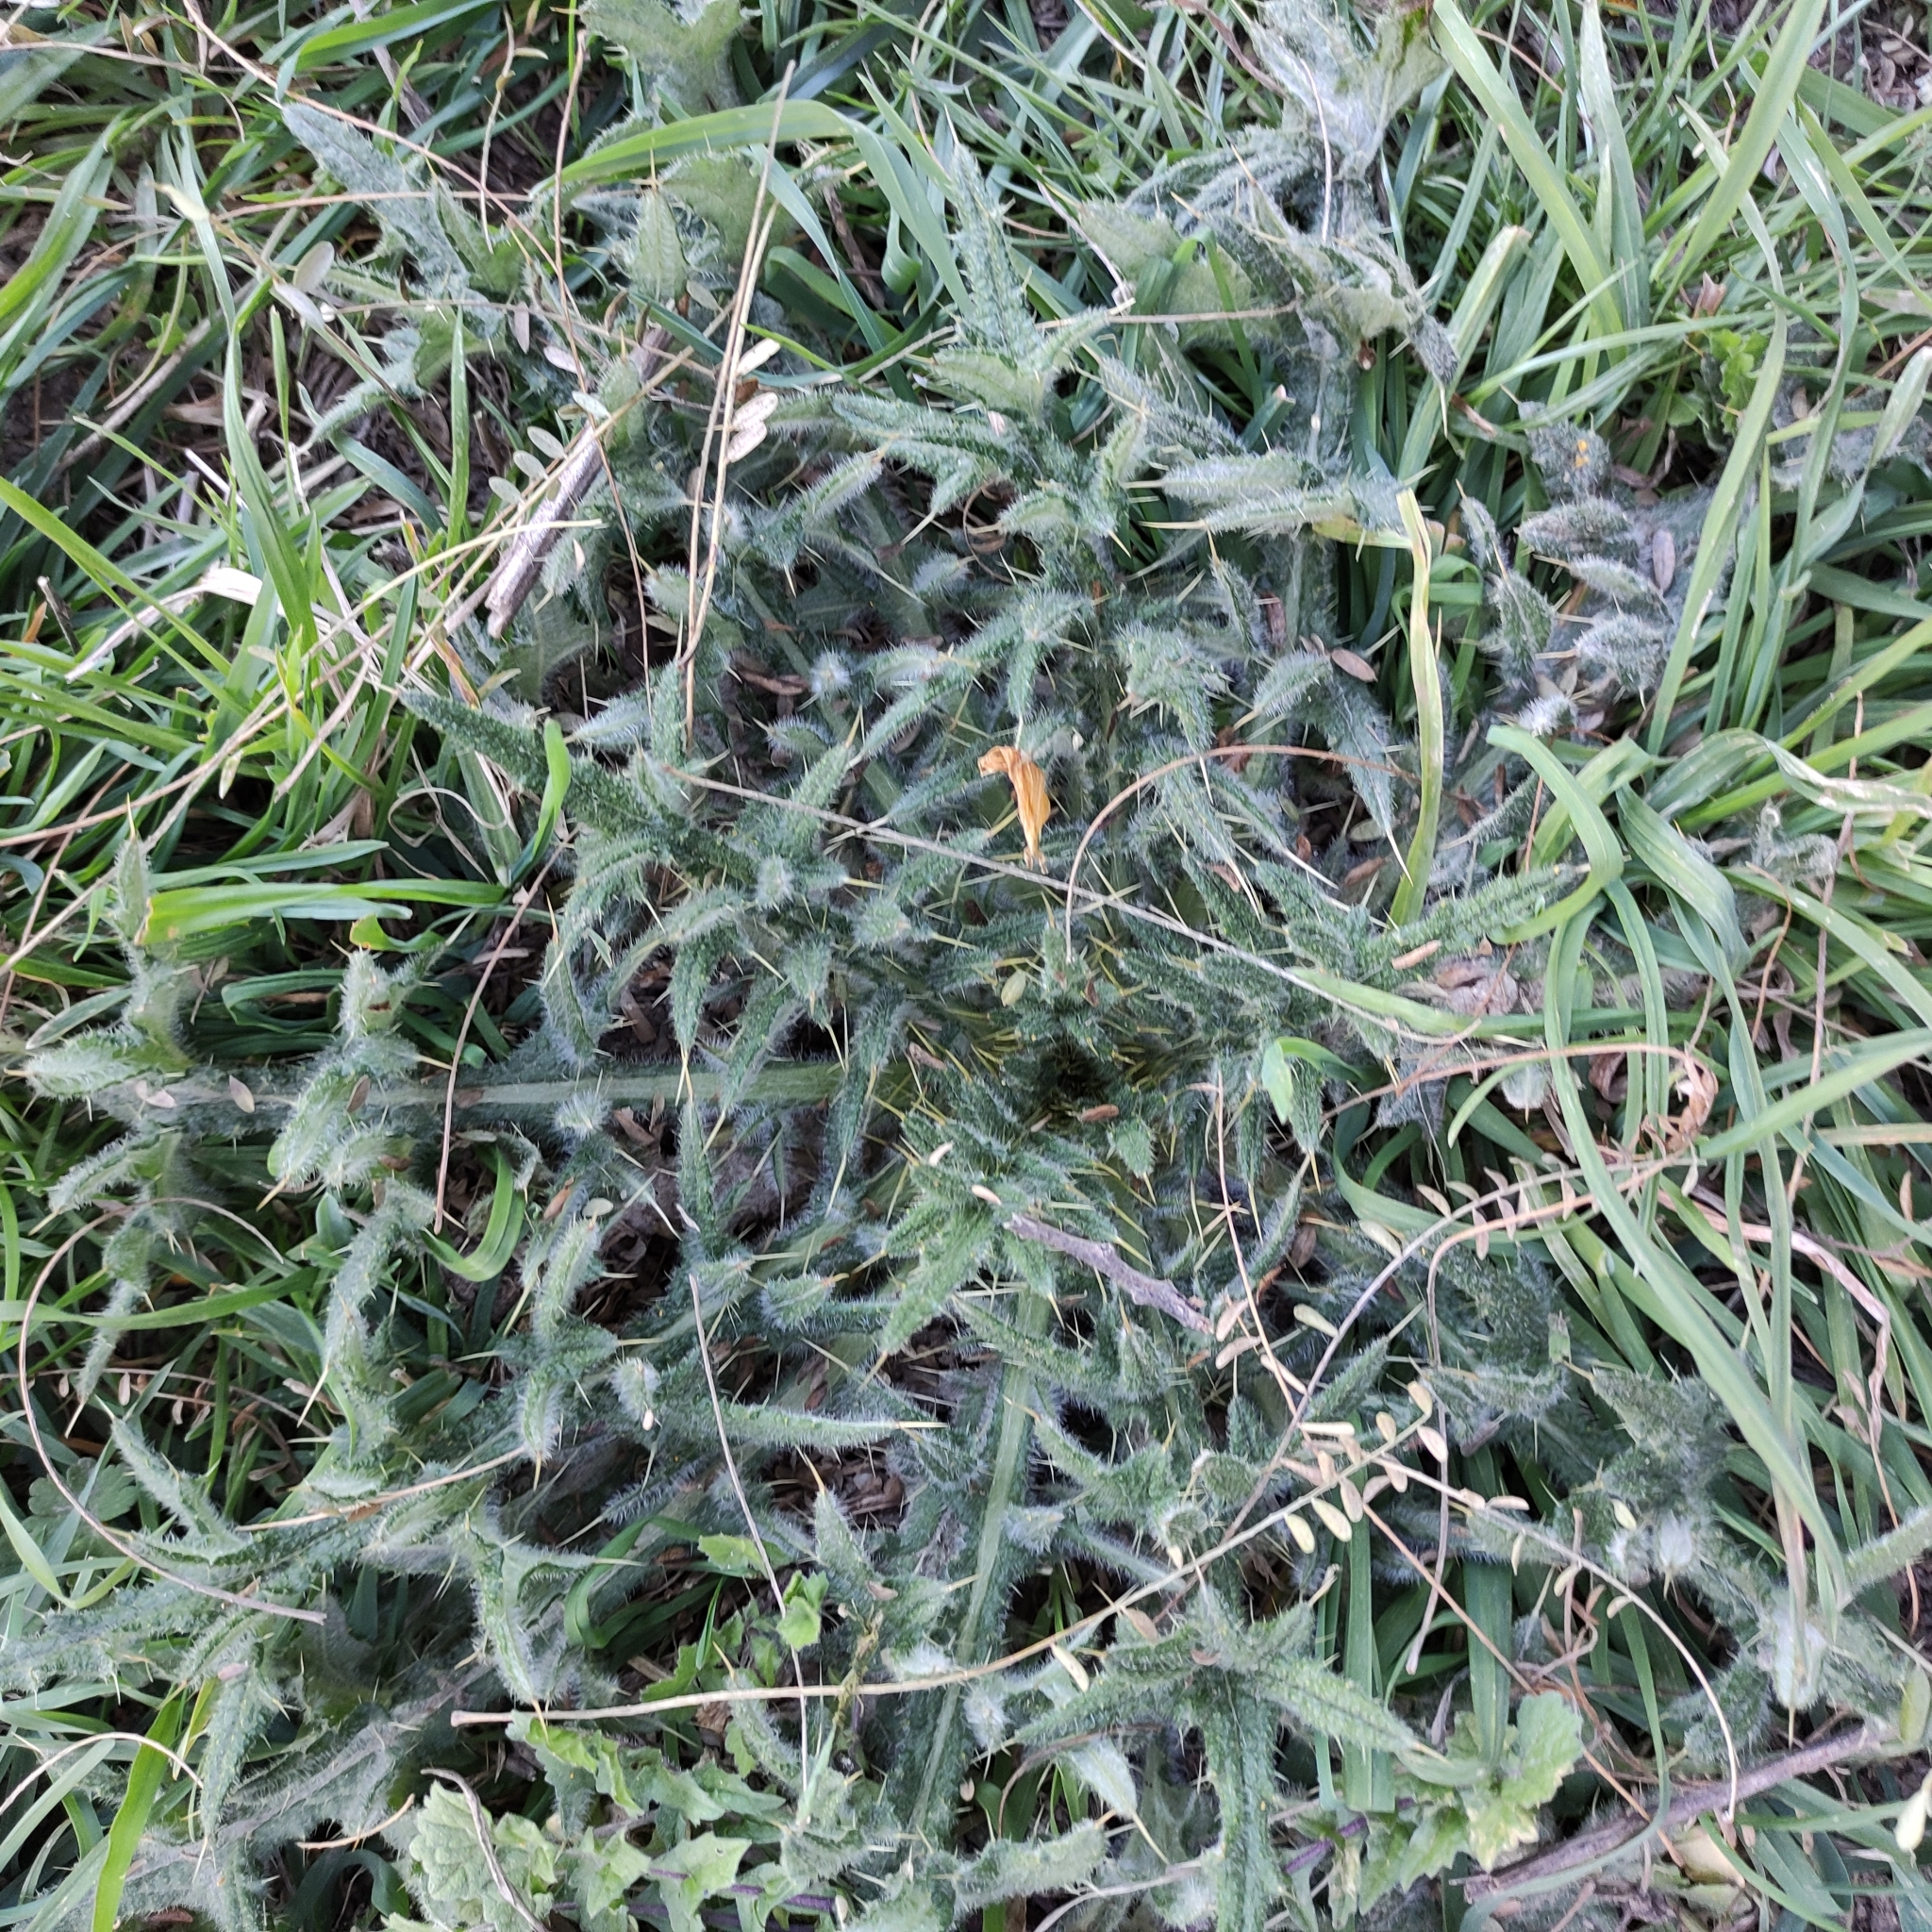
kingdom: Plantae
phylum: Tracheophyta
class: Magnoliopsida
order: Asterales
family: Asteraceae
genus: Cirsium
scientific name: Cirsium vulgare
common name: Bull thistle
